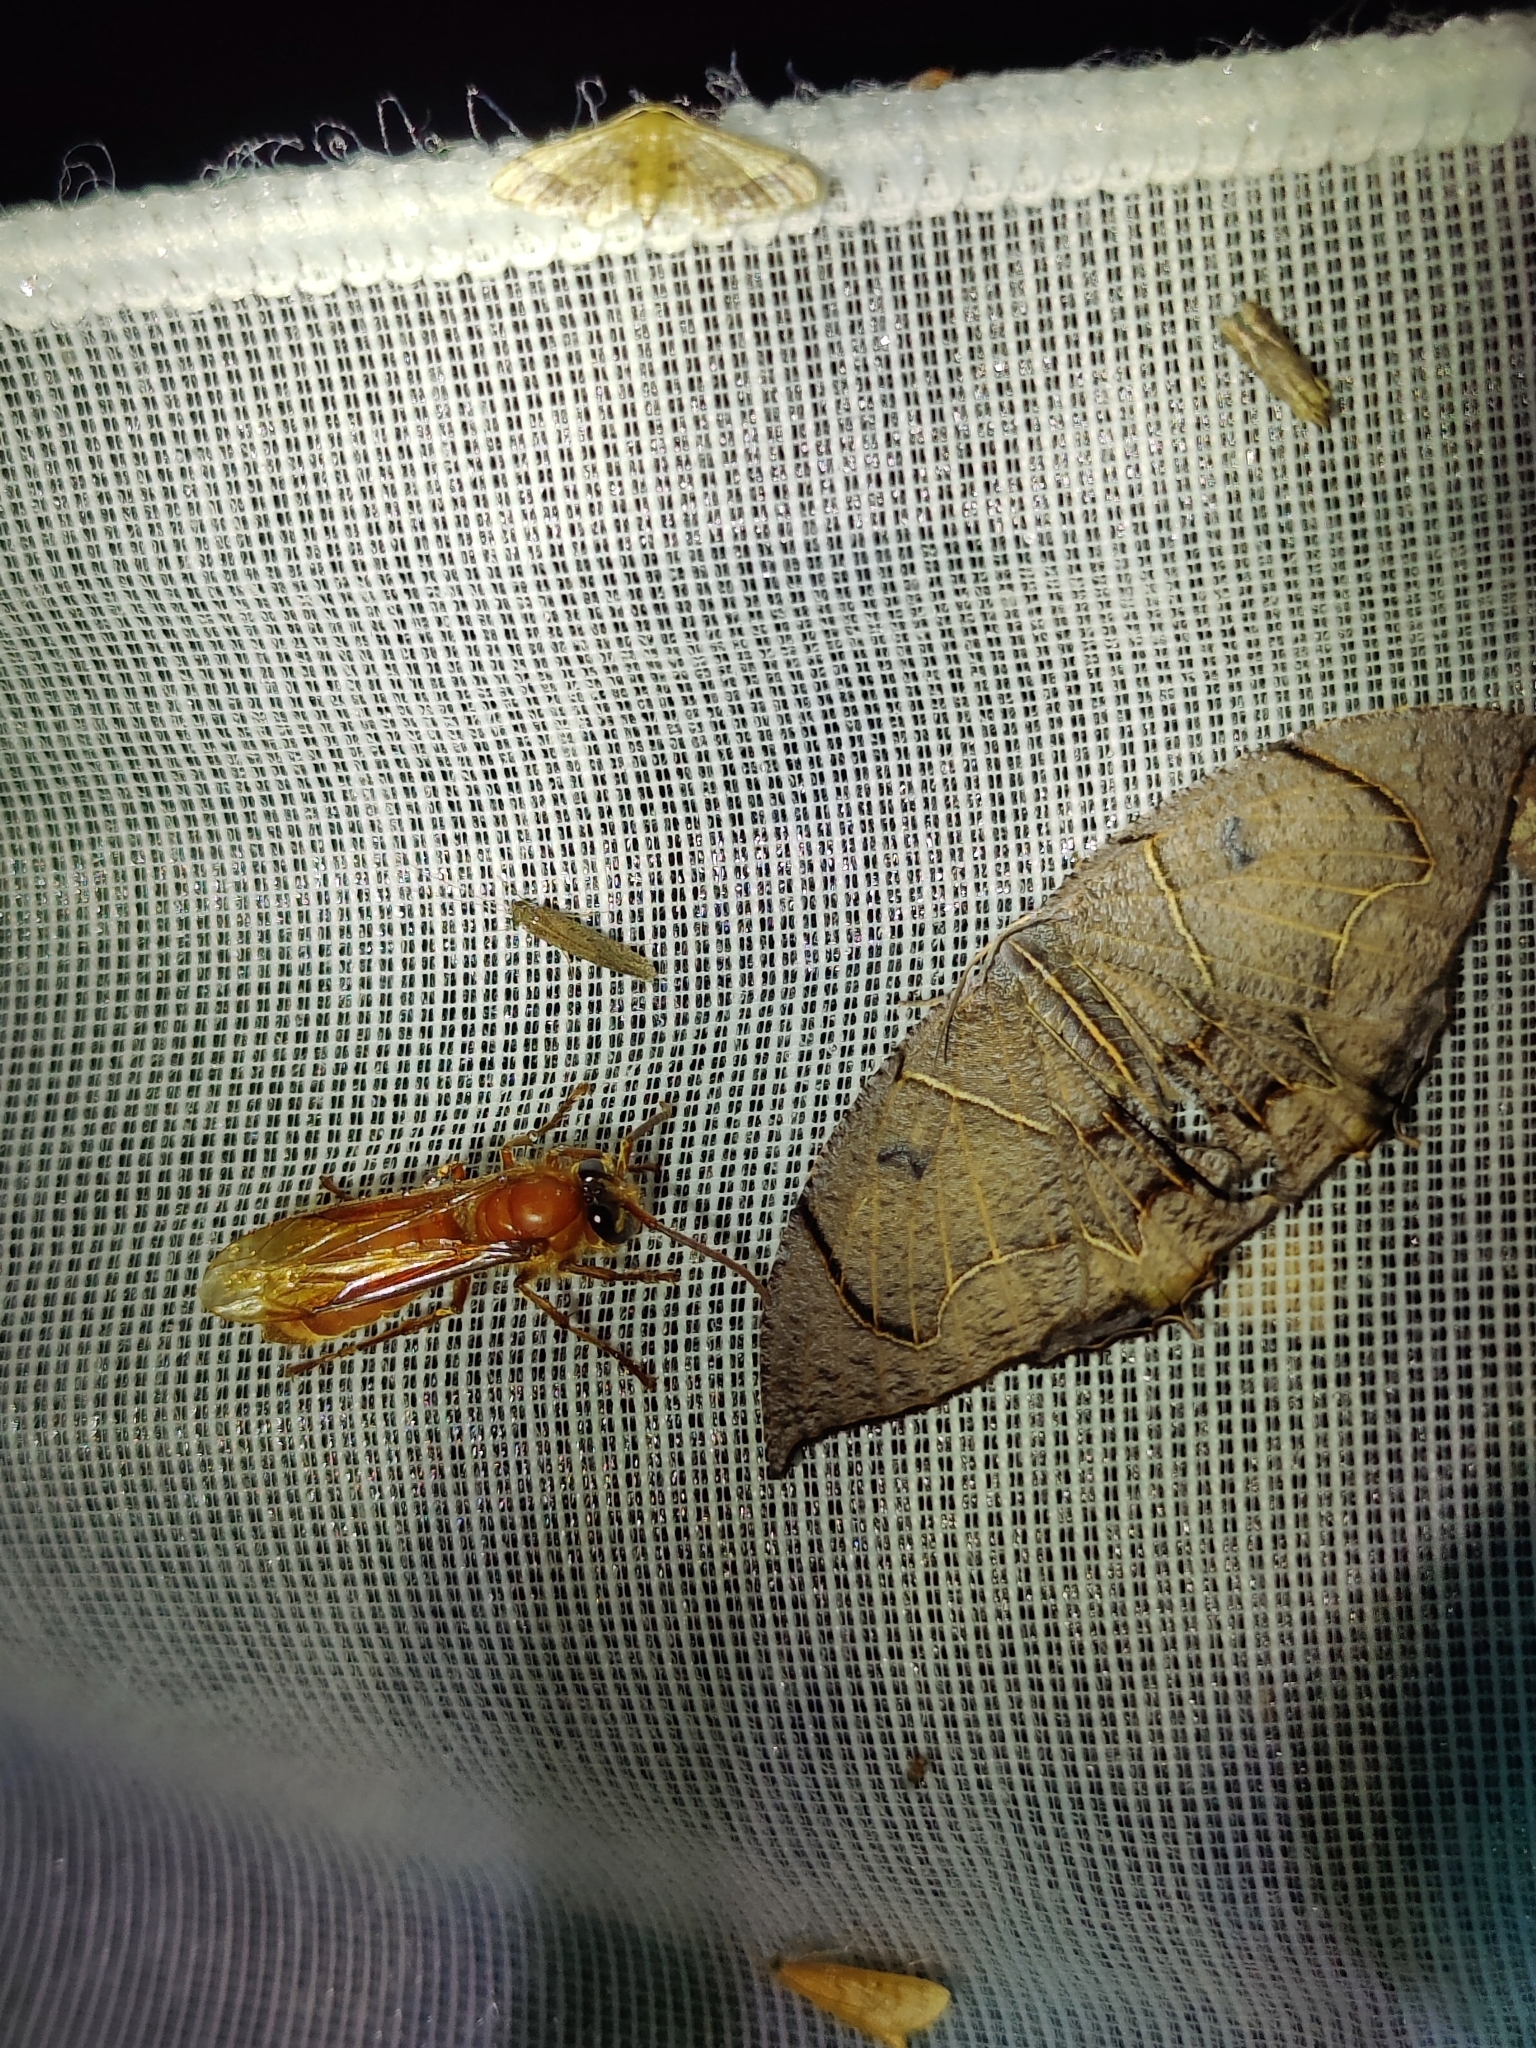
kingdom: Animalia
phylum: Arthropoda
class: Insecta
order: Hymenoptera
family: Vespidae
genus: Provespa
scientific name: Provespa barthelemyi
